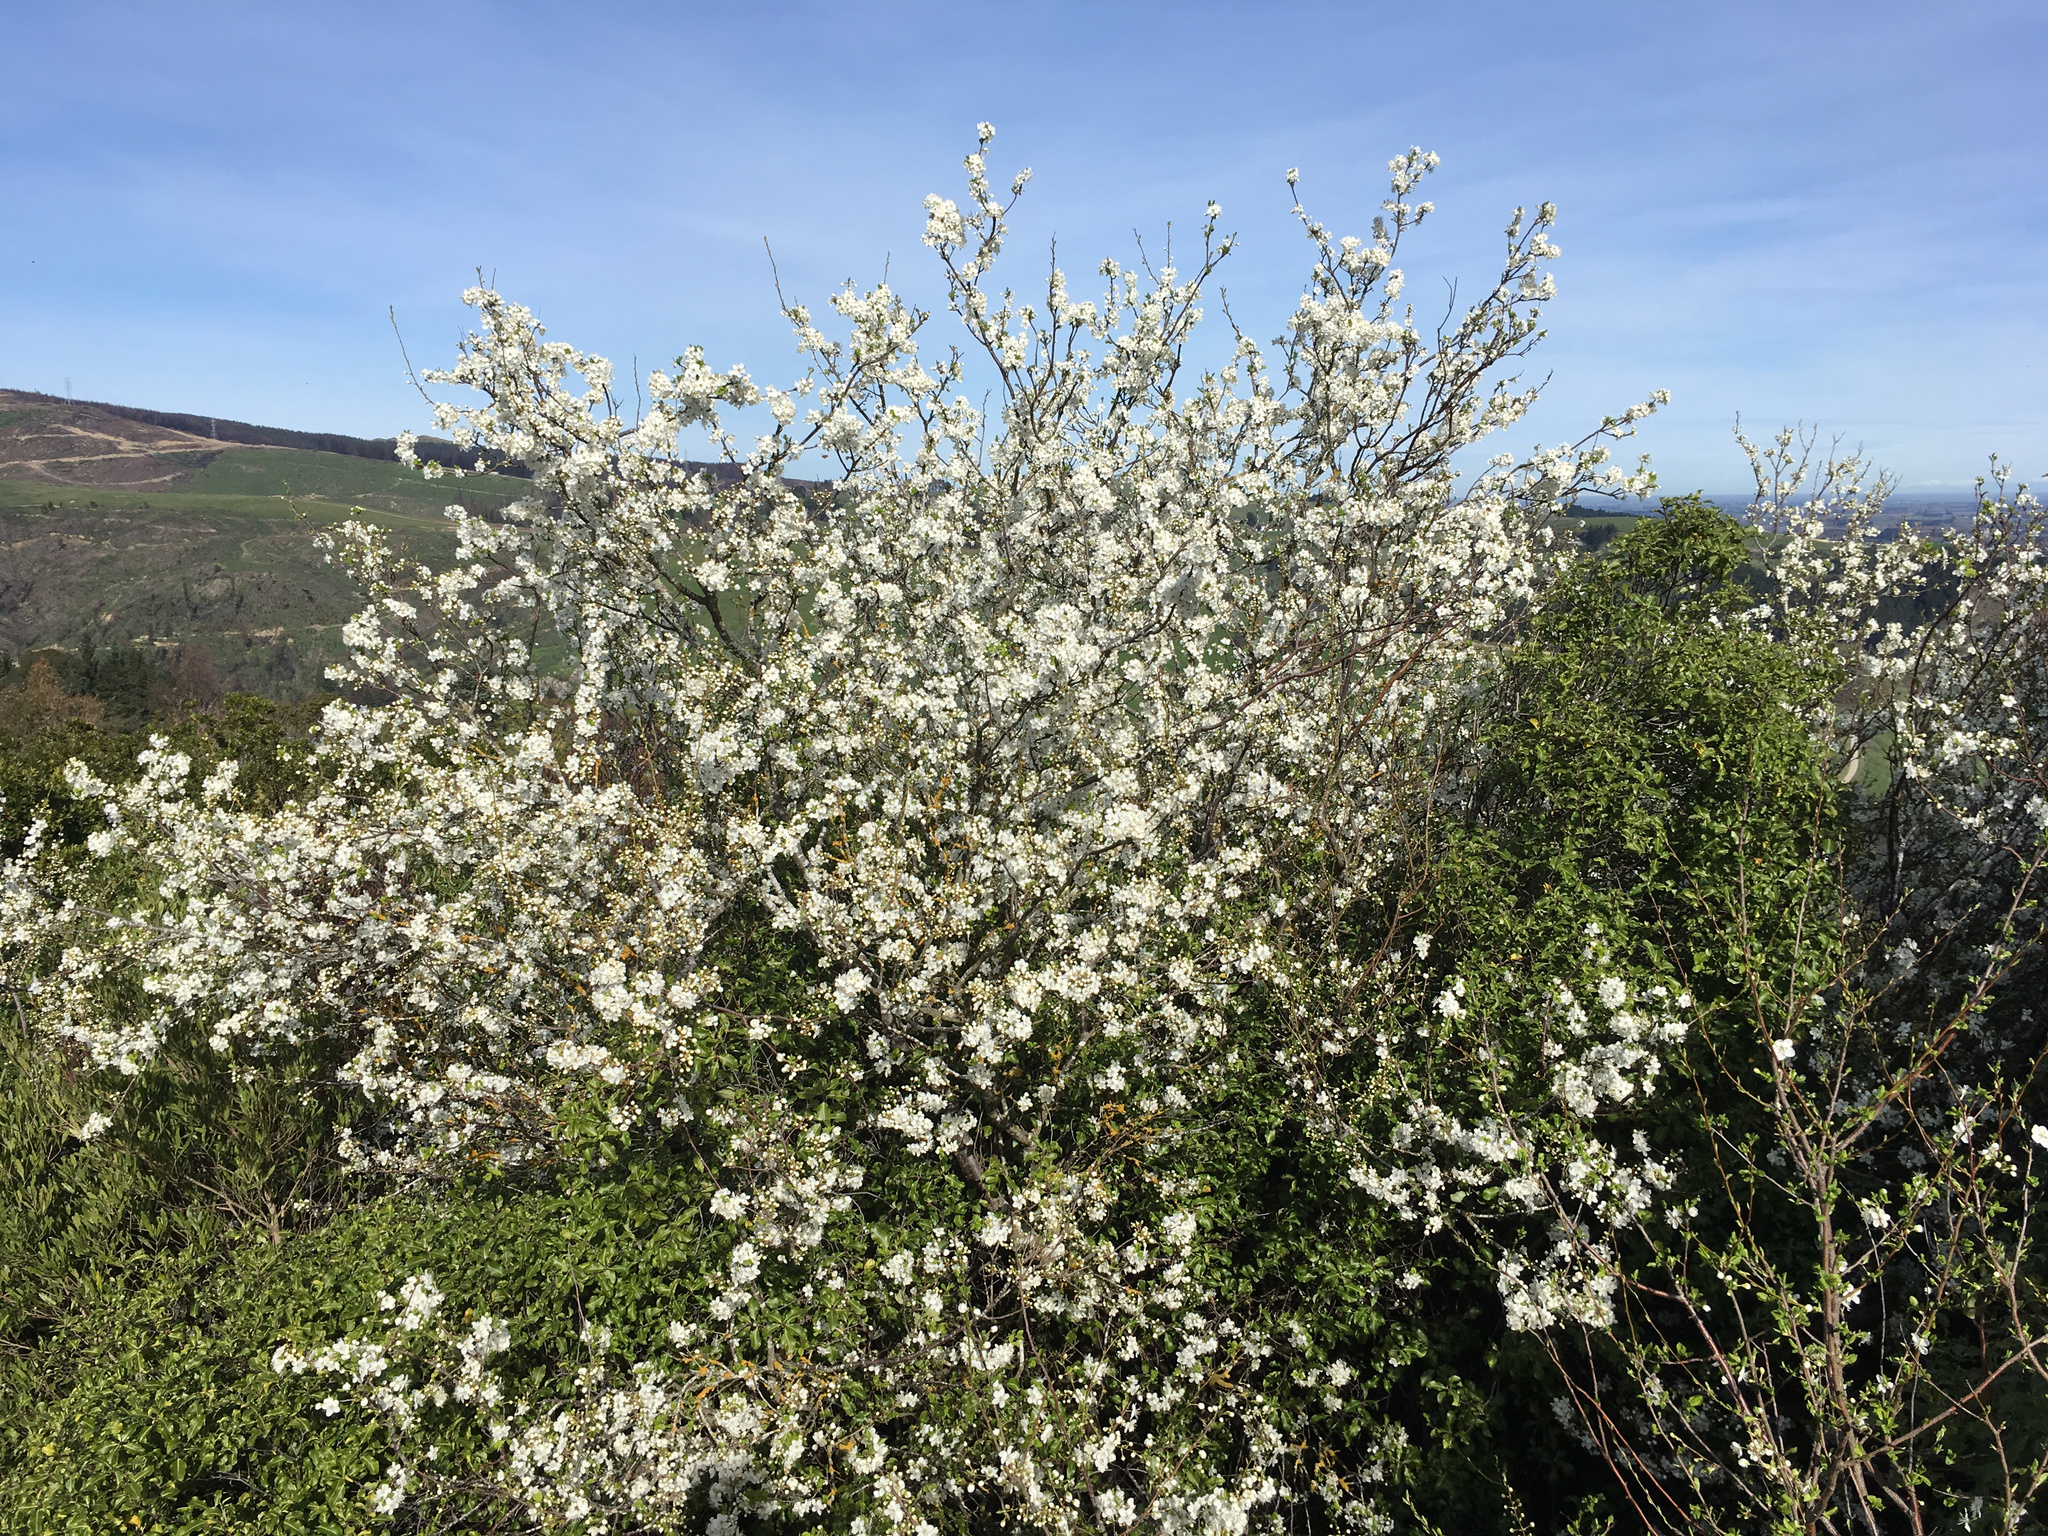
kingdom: Plantae
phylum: Tracheophyta
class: Magnoliopsida
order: Rosales
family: Rosaceae
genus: Prunus
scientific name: Prunus cerasifera
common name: Cherry plum
